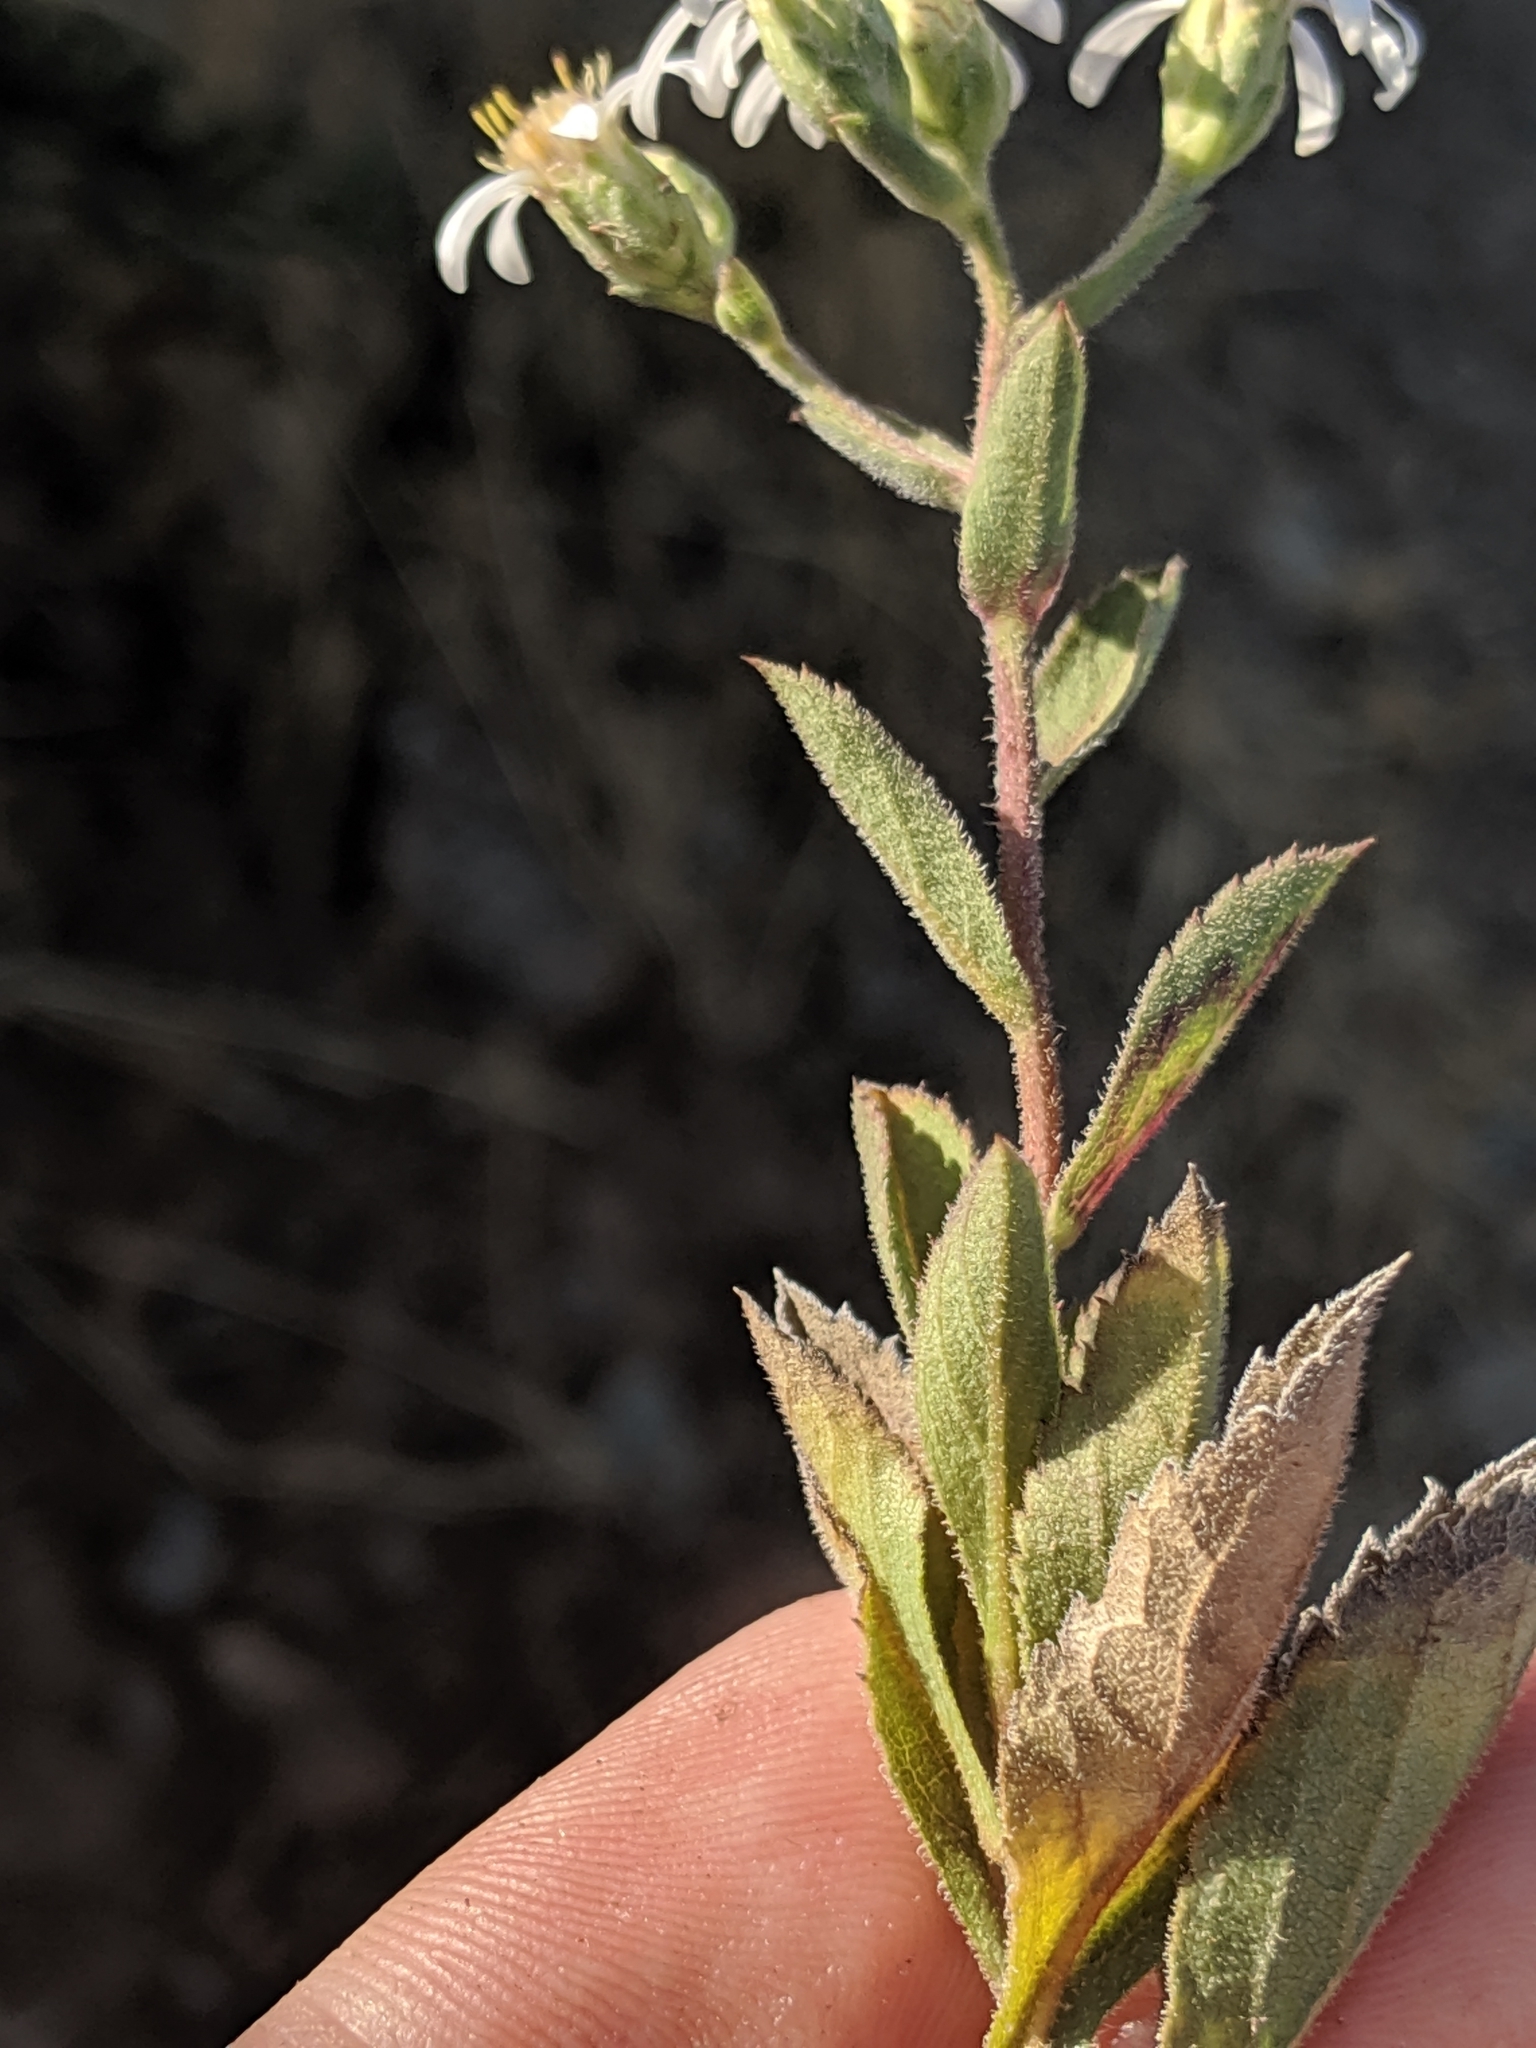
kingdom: Plantae
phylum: Tracheophyta
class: Magnoliopsida
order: Asterales
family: Asteraceae
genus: Eurybia
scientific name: Eurybia radulina
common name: Rough-leaved aster
